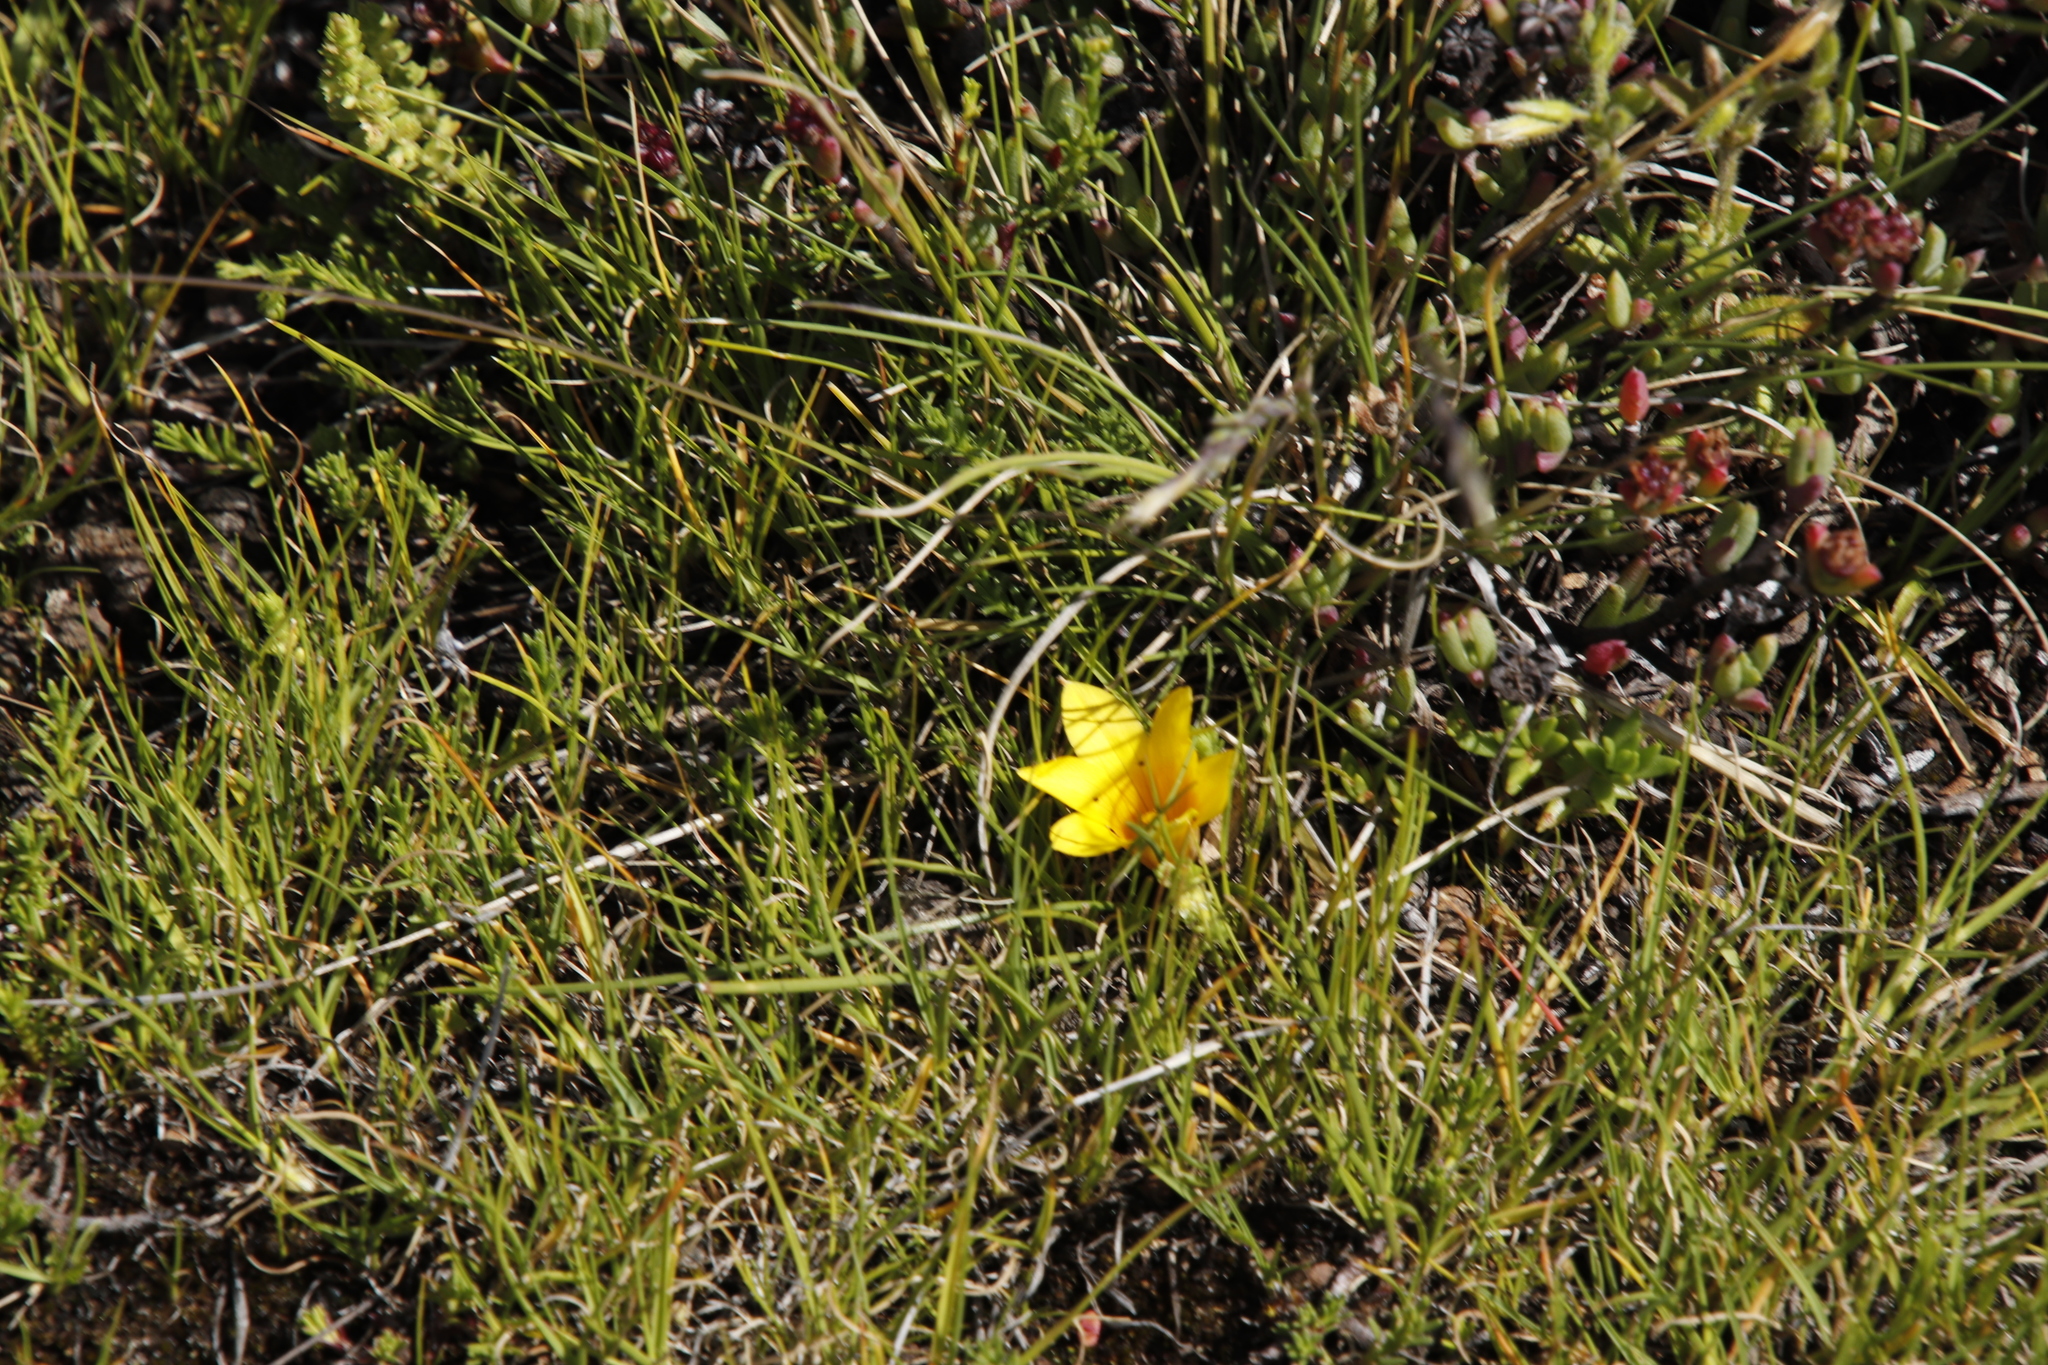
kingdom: Plantae
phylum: Tracheophyta
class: Liliopsida
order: Asparagales
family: Iridaceae
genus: Romulea
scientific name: Romulea macowanii
